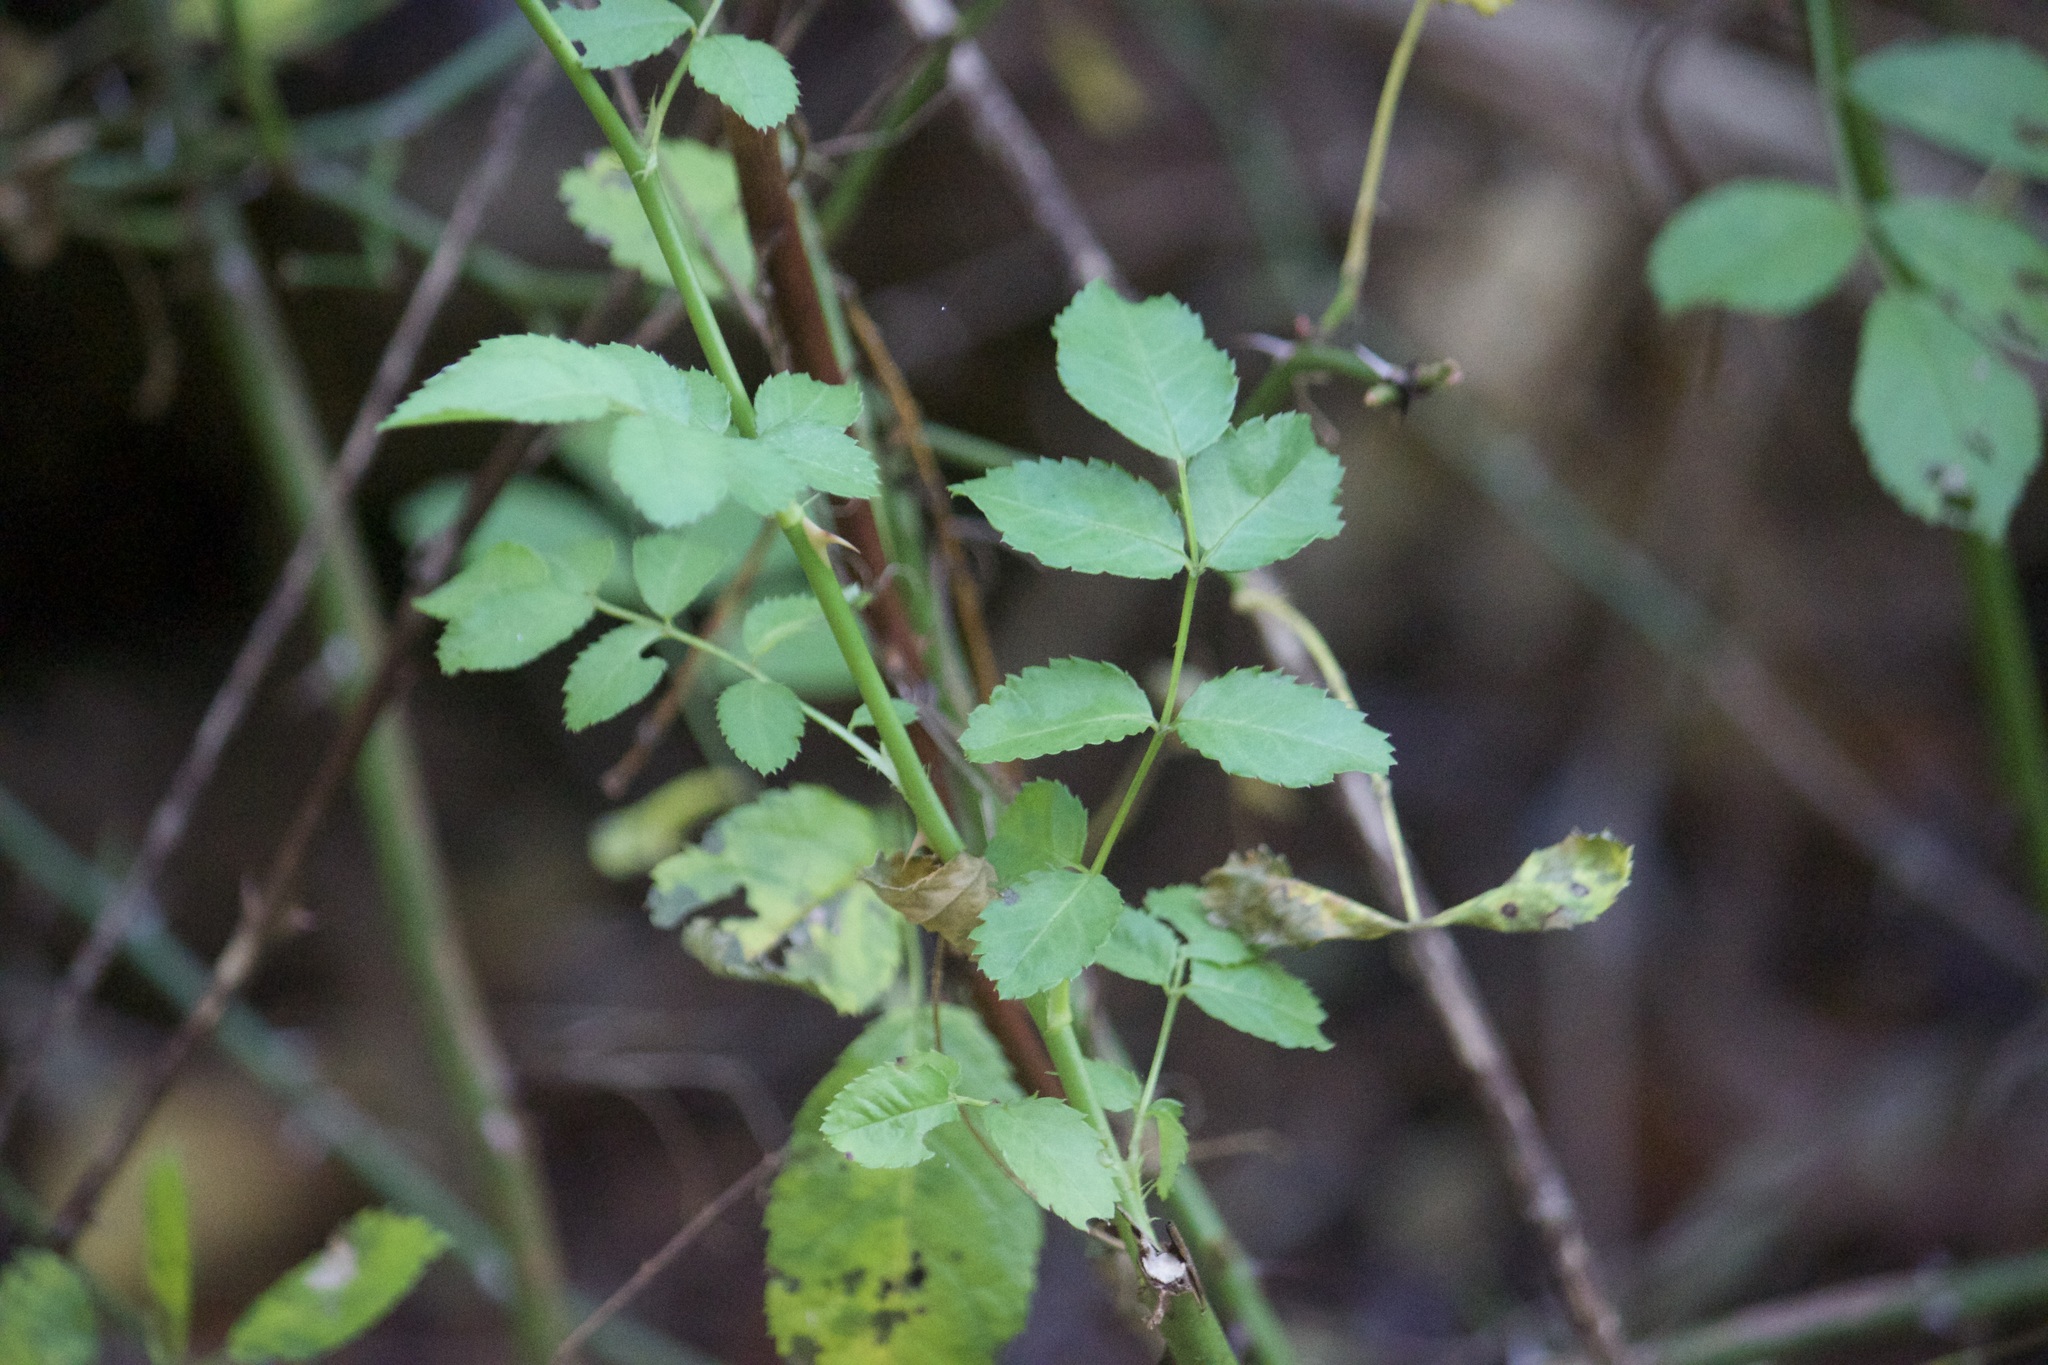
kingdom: Plantae
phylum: Tracheophyta
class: Magnoliopsida
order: Rosales
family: Rosaceae
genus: Rosa
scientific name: Rosa multiflora
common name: Multiflora rose
